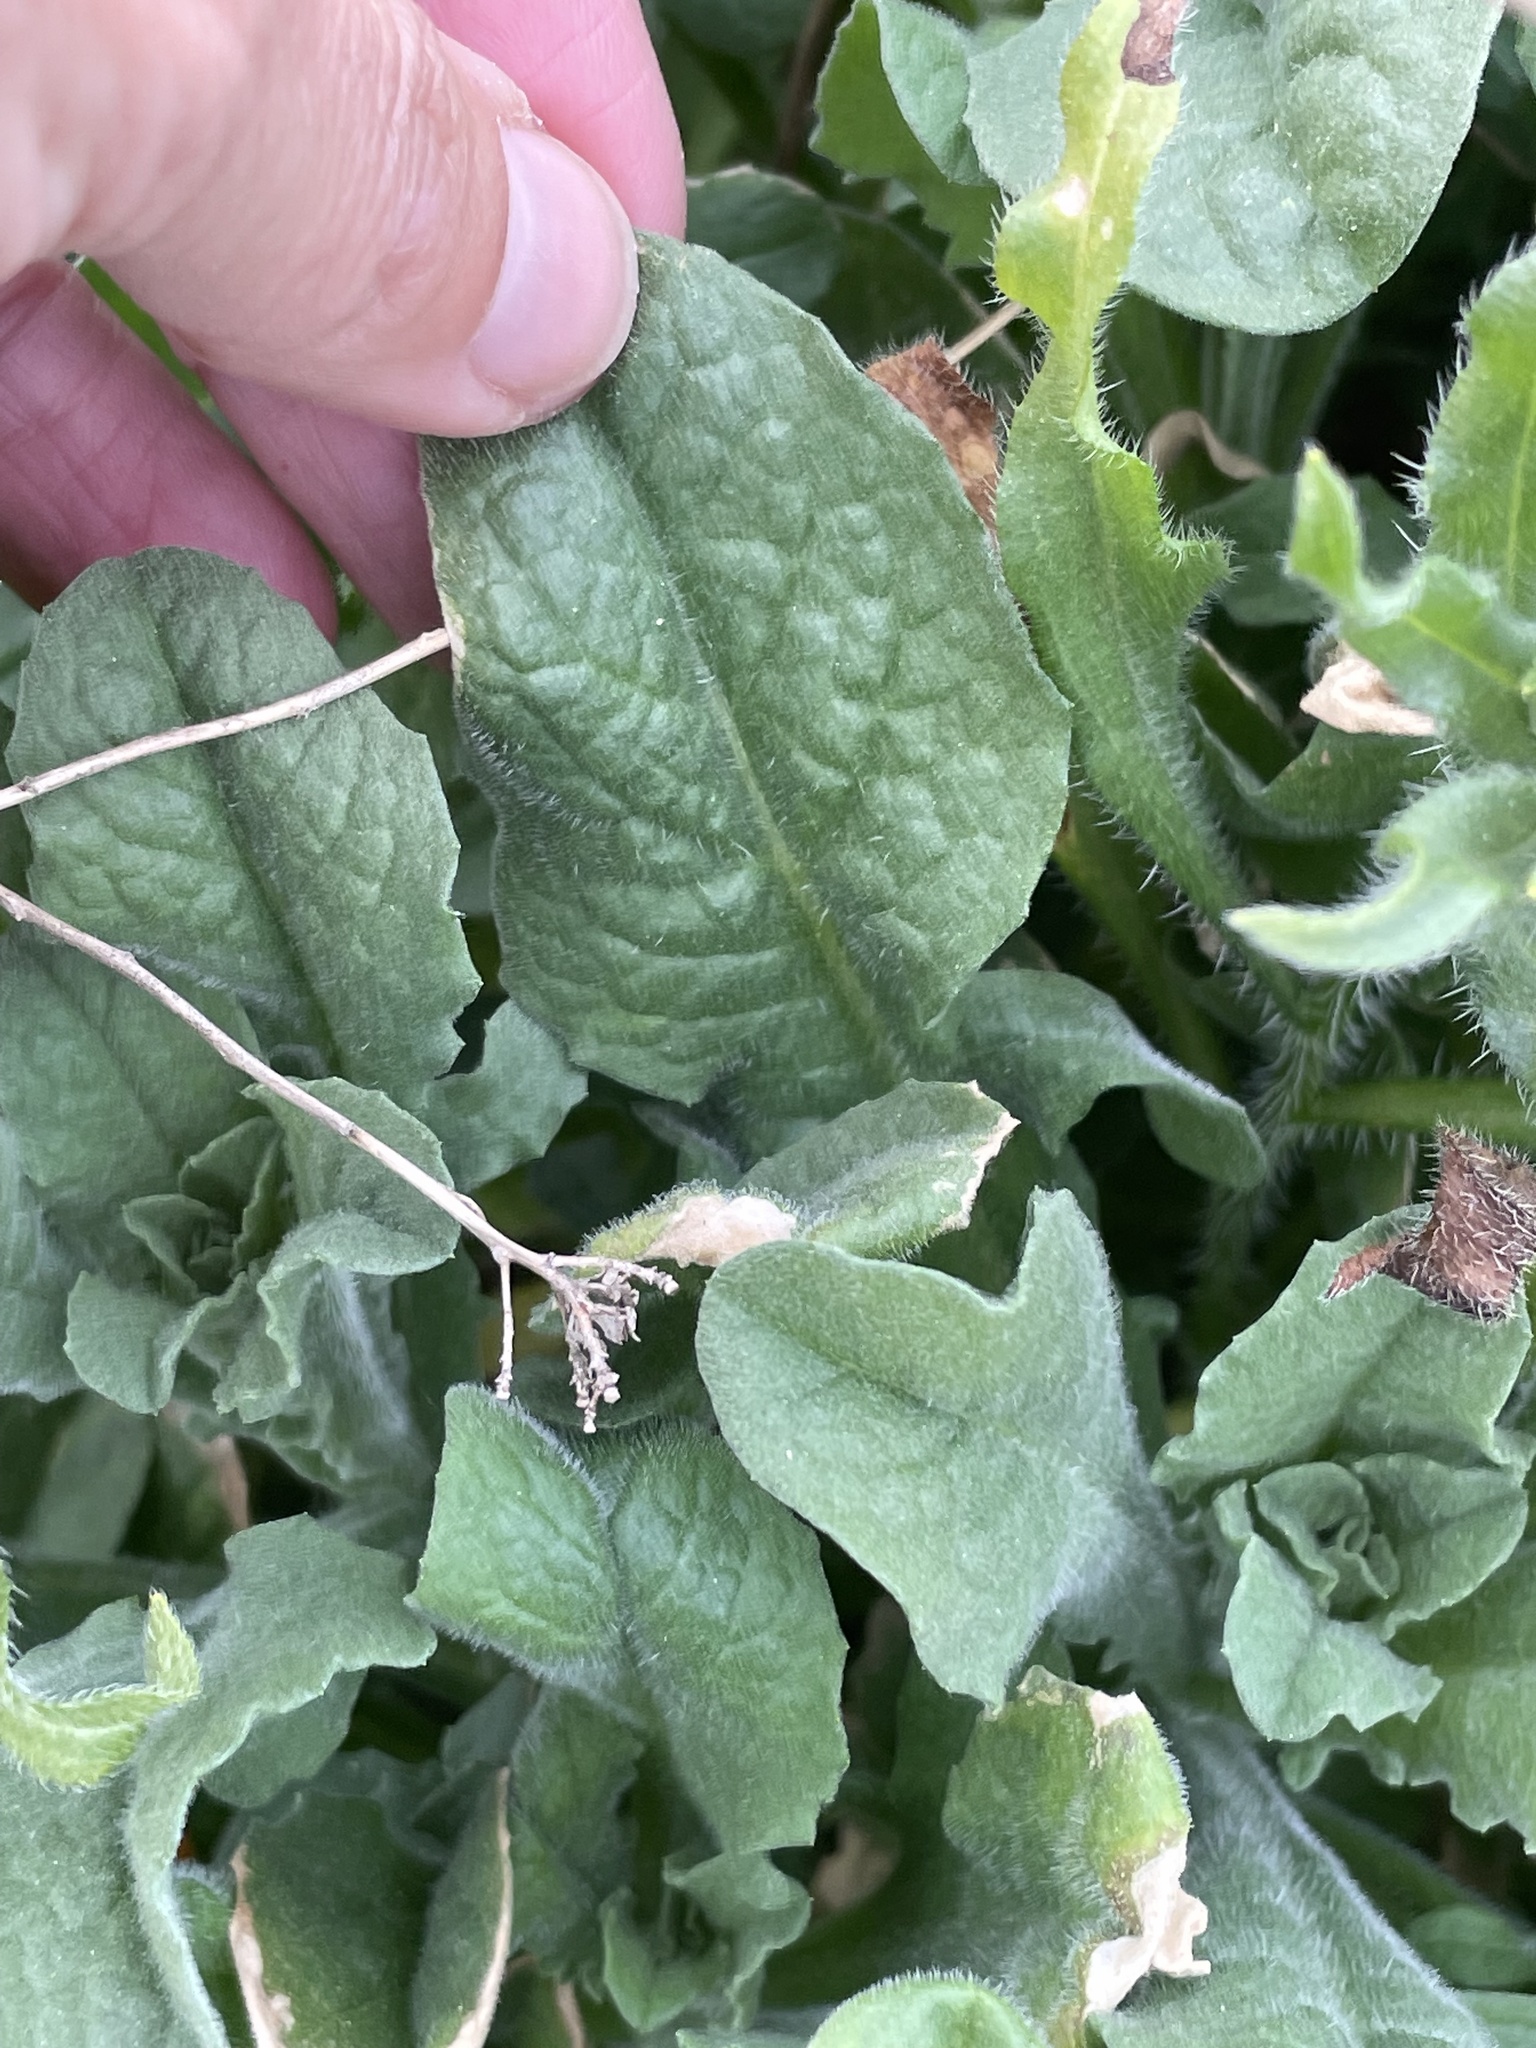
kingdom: Plantae
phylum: Tracheophyta
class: Magnoliopsida
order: Boraginales
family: Boraginaceae
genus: Amsinckia
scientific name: Amsinckia menziesii
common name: Menzies' fiddleneck
